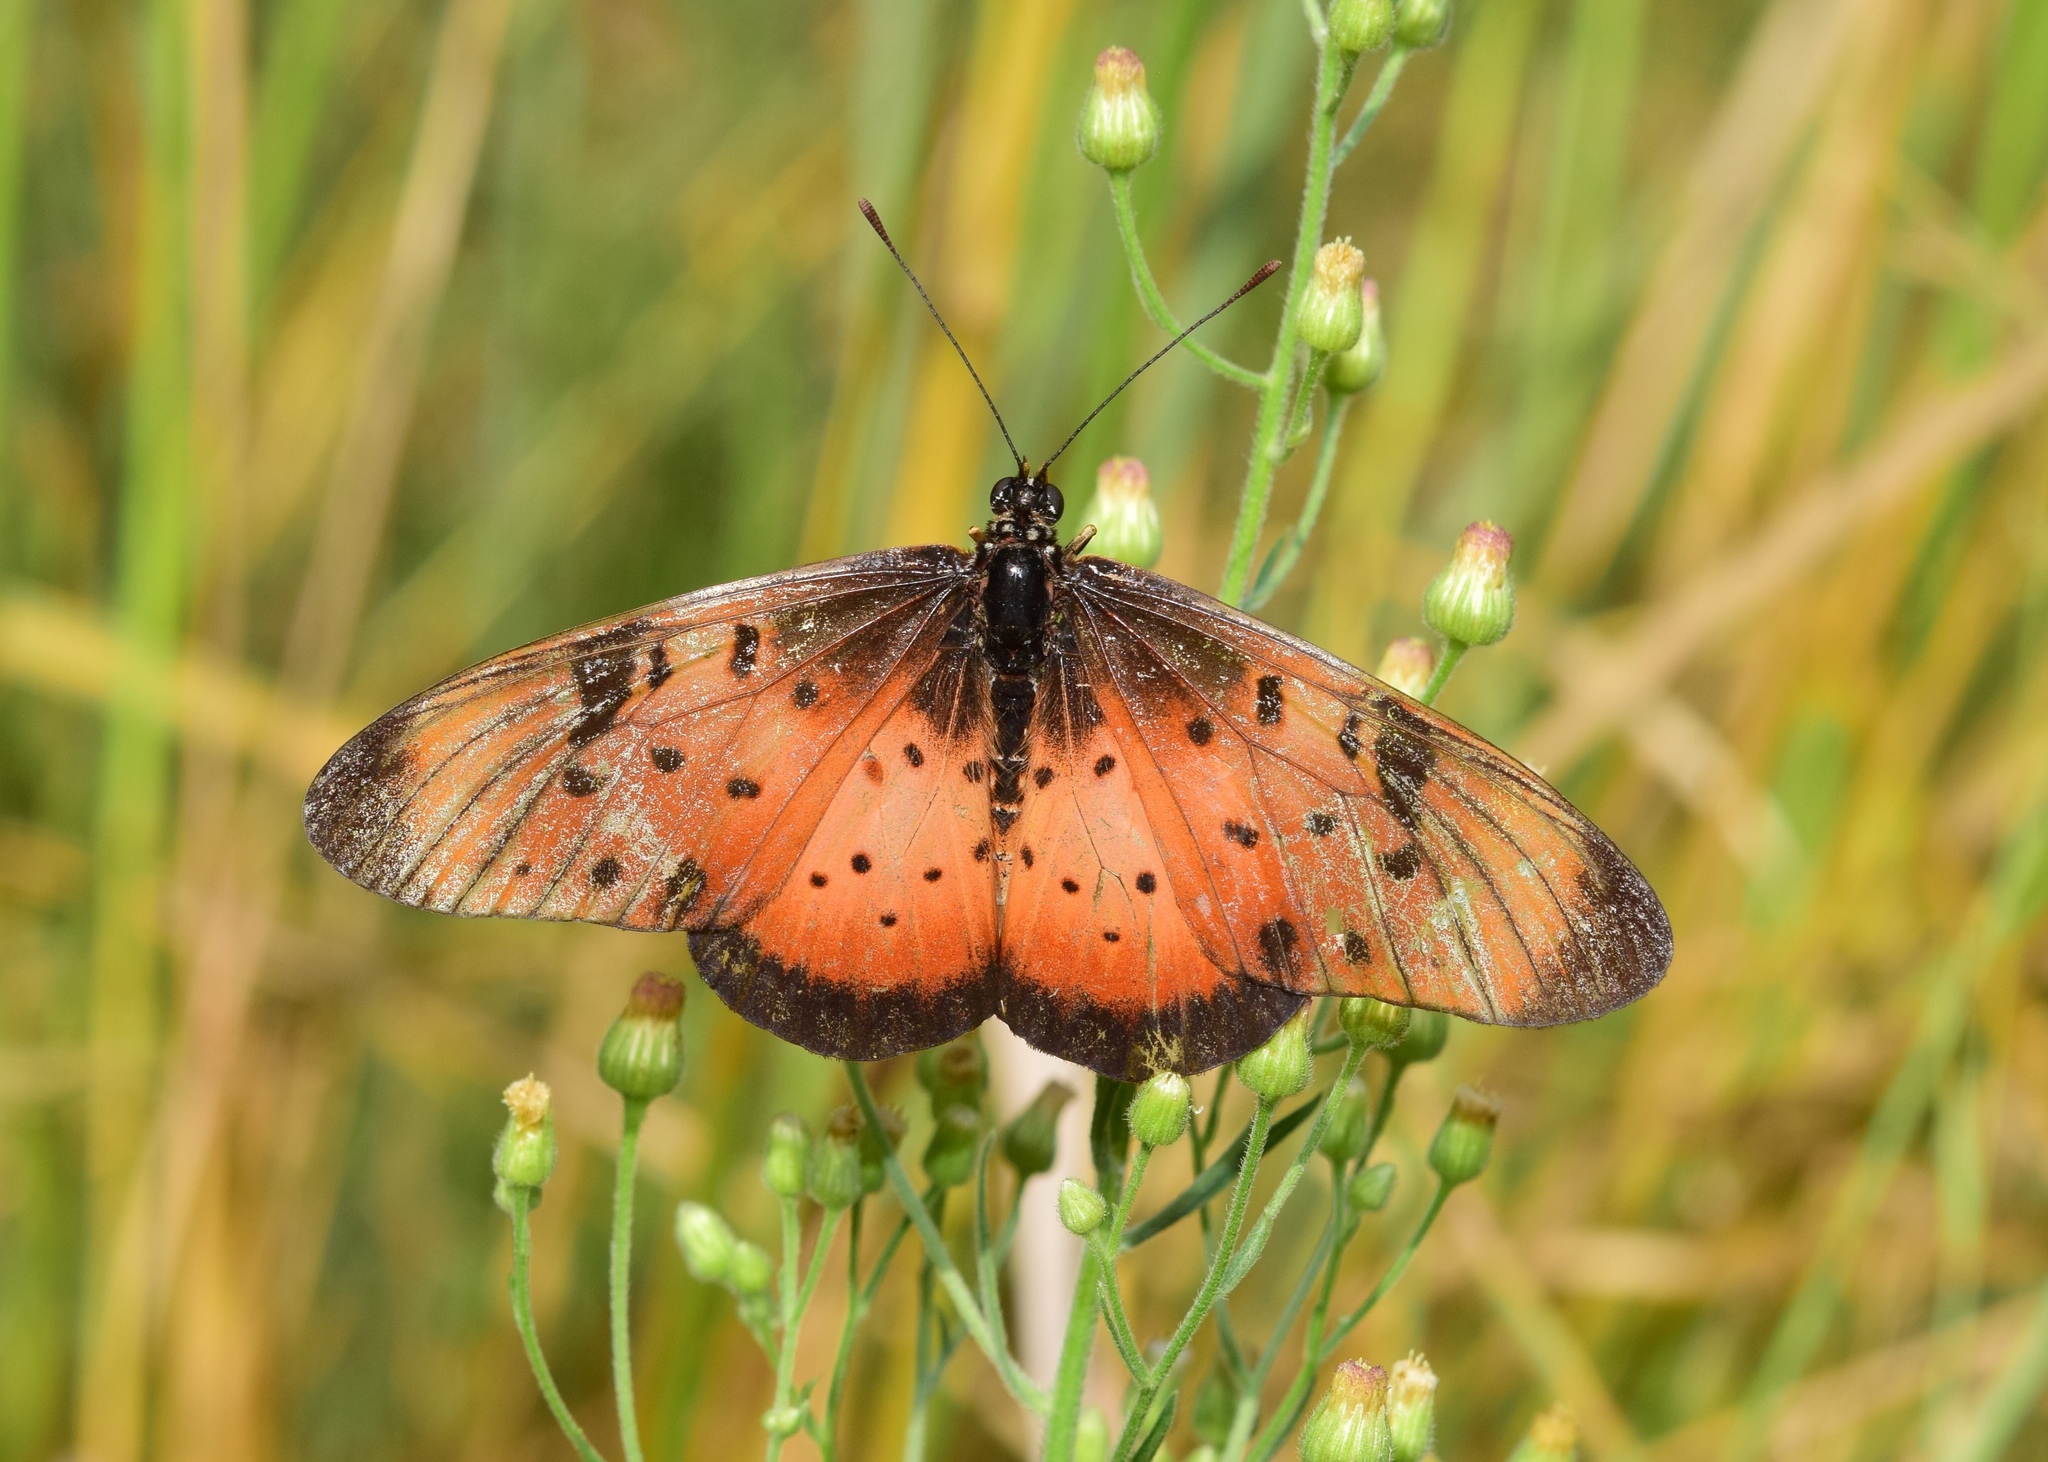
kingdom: Animalia
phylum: Arthropoda
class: Insecta
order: Lepidoptera
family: Nymphalidae
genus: Stephenia
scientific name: Stephenia
